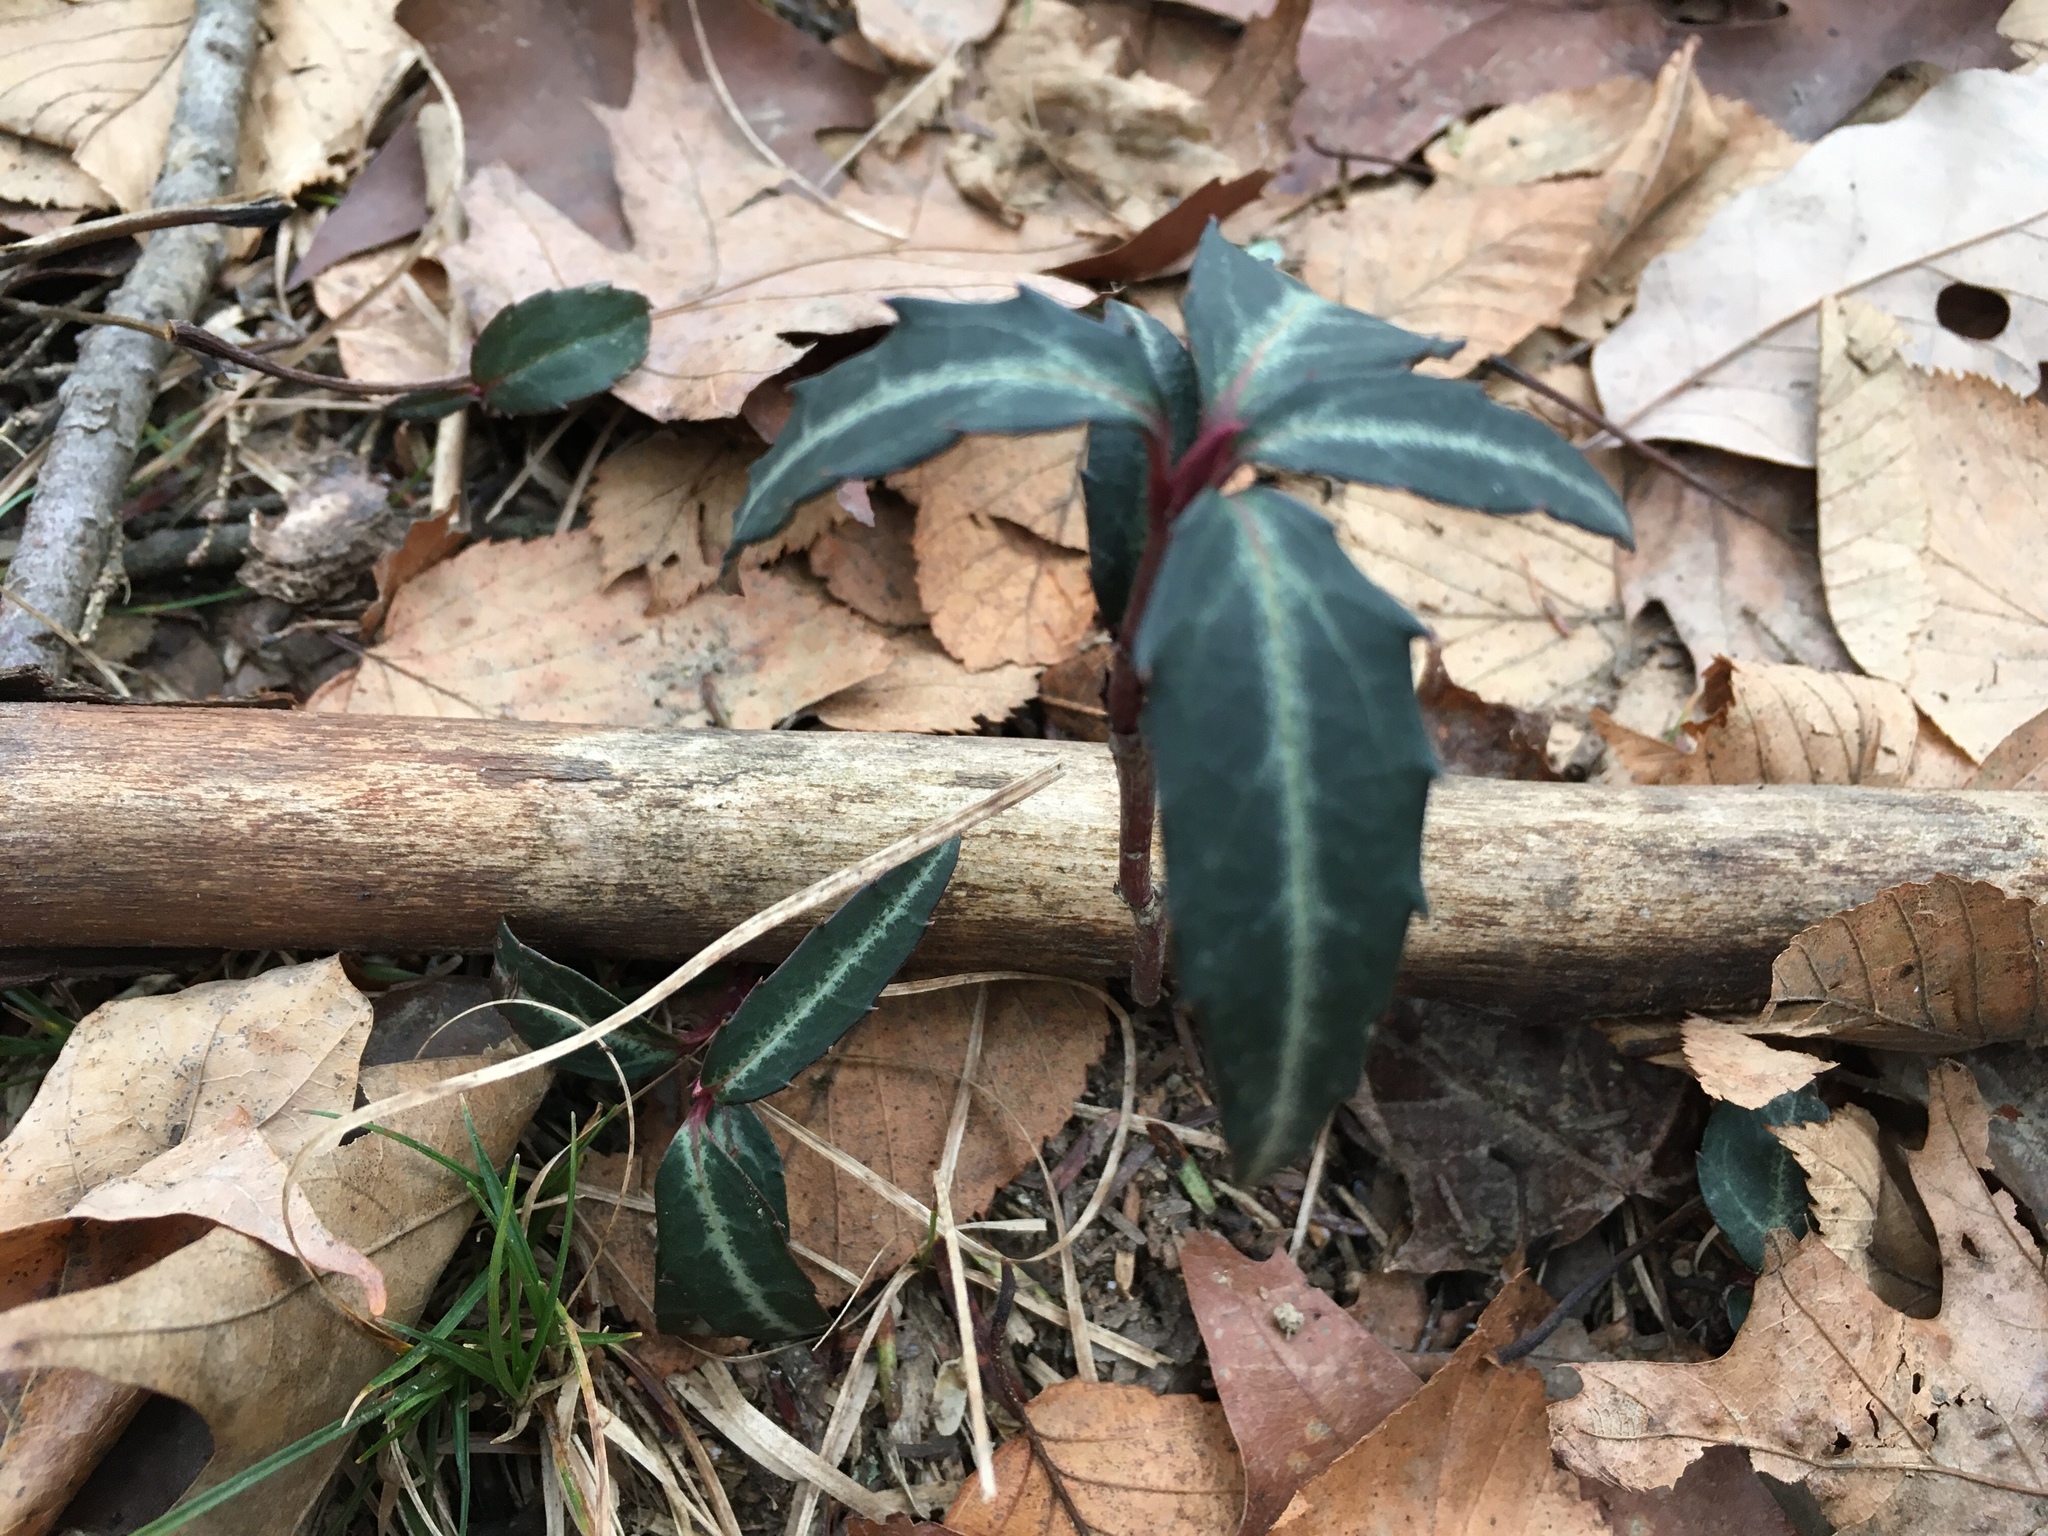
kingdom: Plantae
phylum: Tracheophyta
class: Magnoliopsida
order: Ericales
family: Ericaceae
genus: Chimaphila
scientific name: Chimaphila maculata
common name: Spotted pipsissewa
